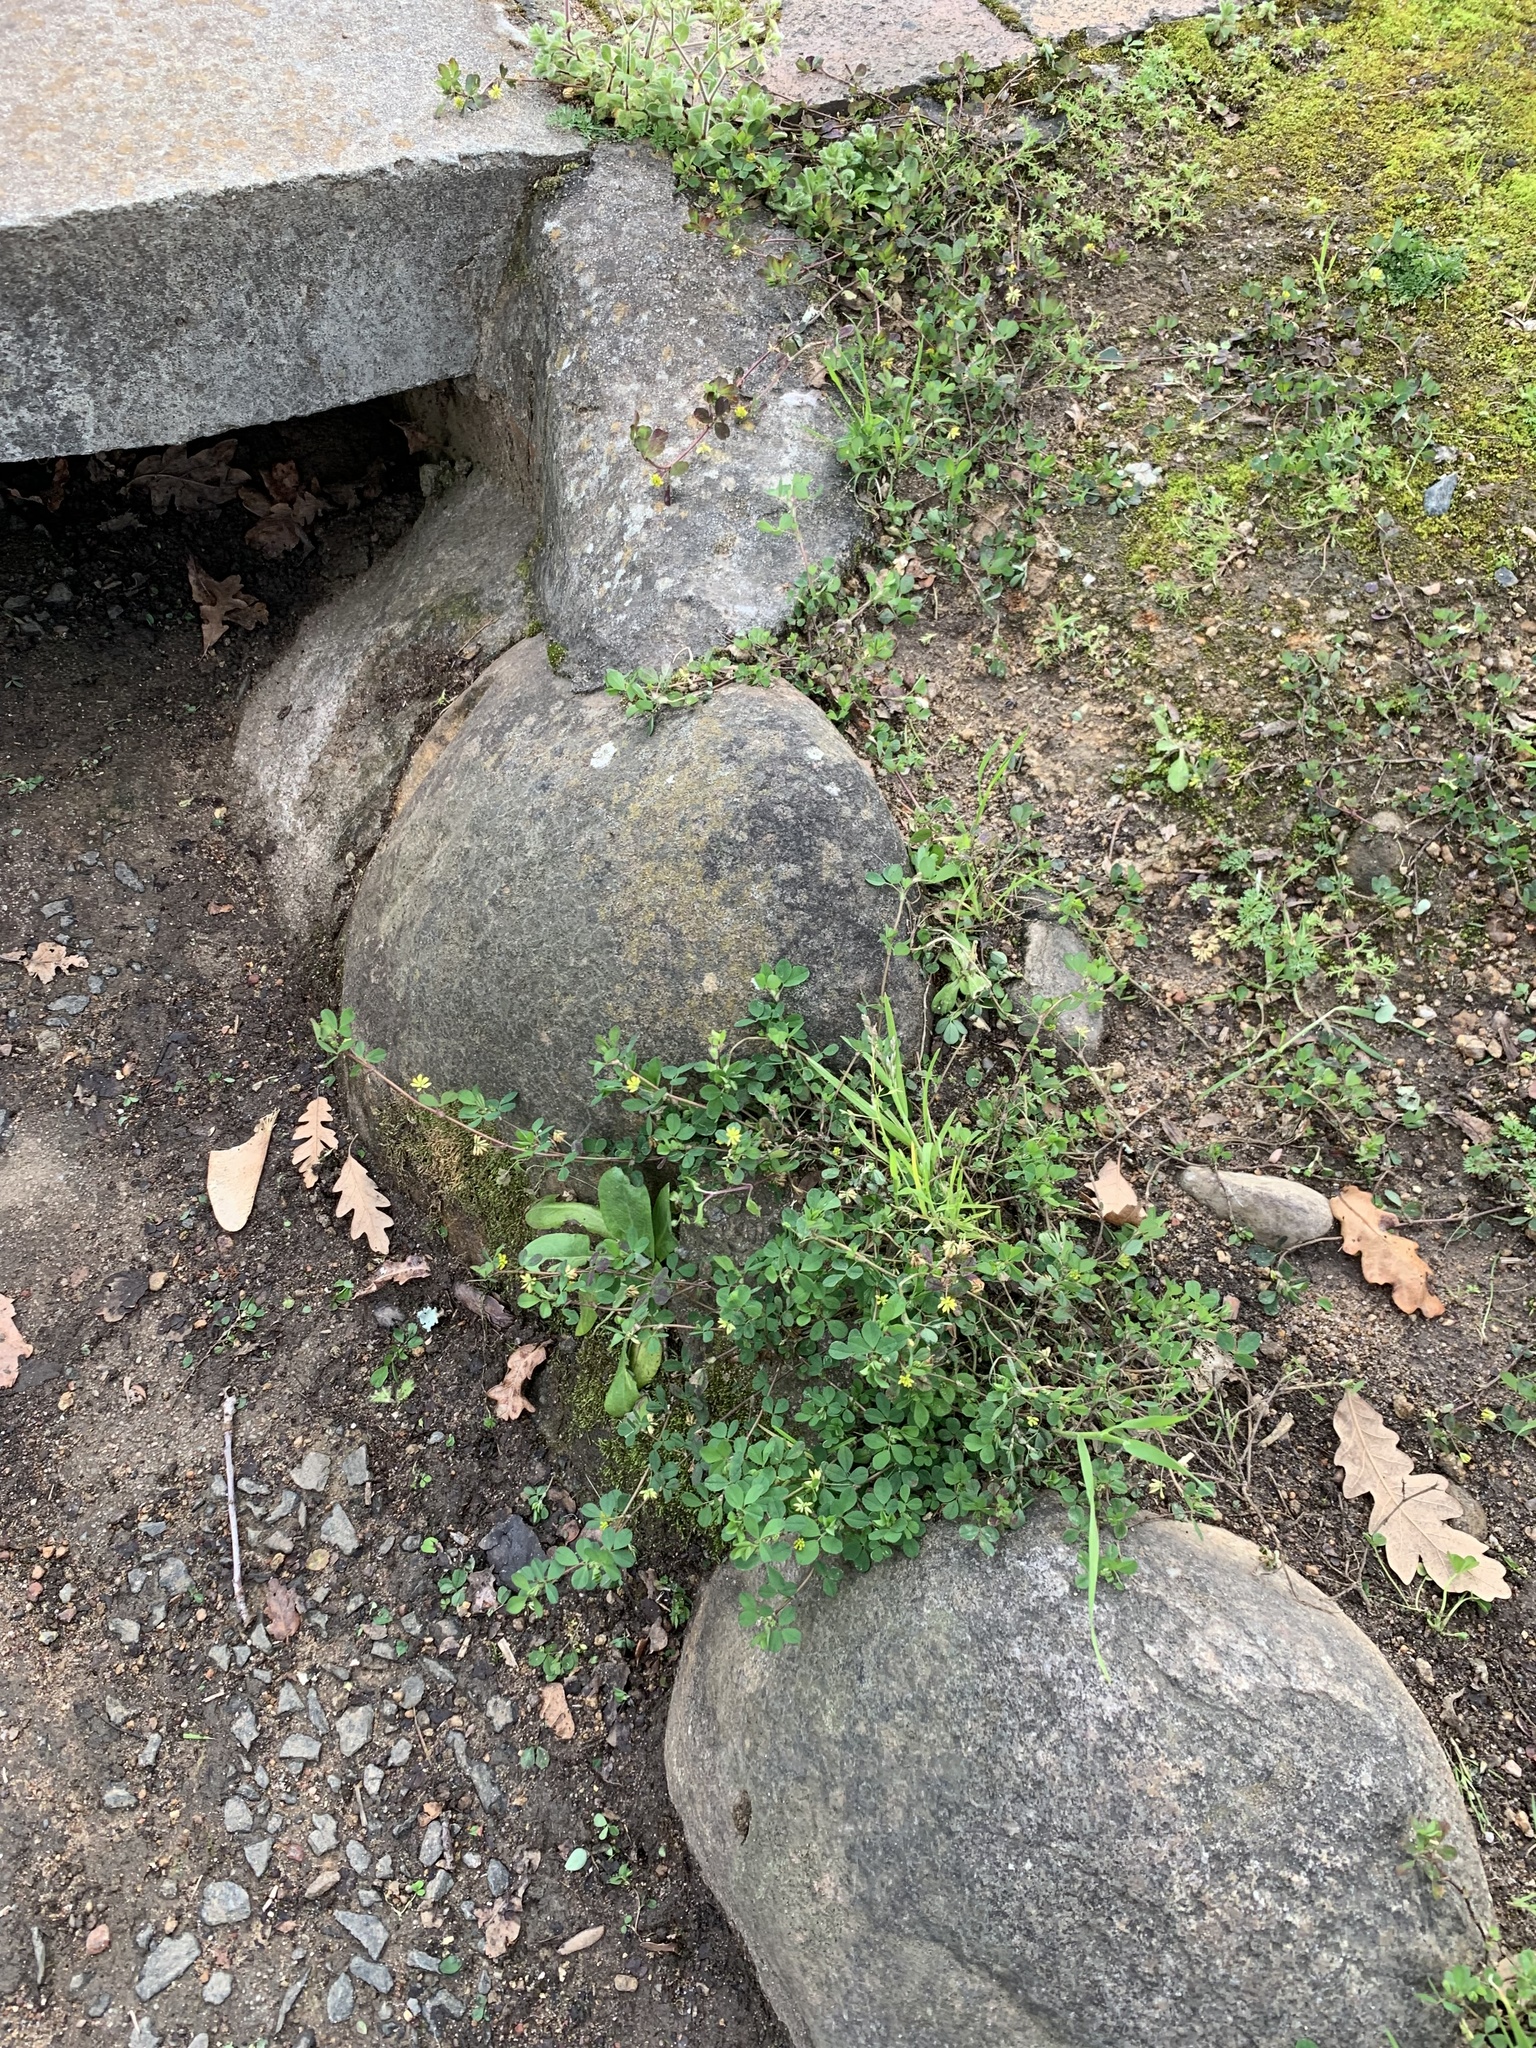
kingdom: Plantae
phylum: Tracheophyta
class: Magnoliopsida
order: Fabales
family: Fabaceae
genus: Trifolium
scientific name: Trifolium dubium
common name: Suckling clover
